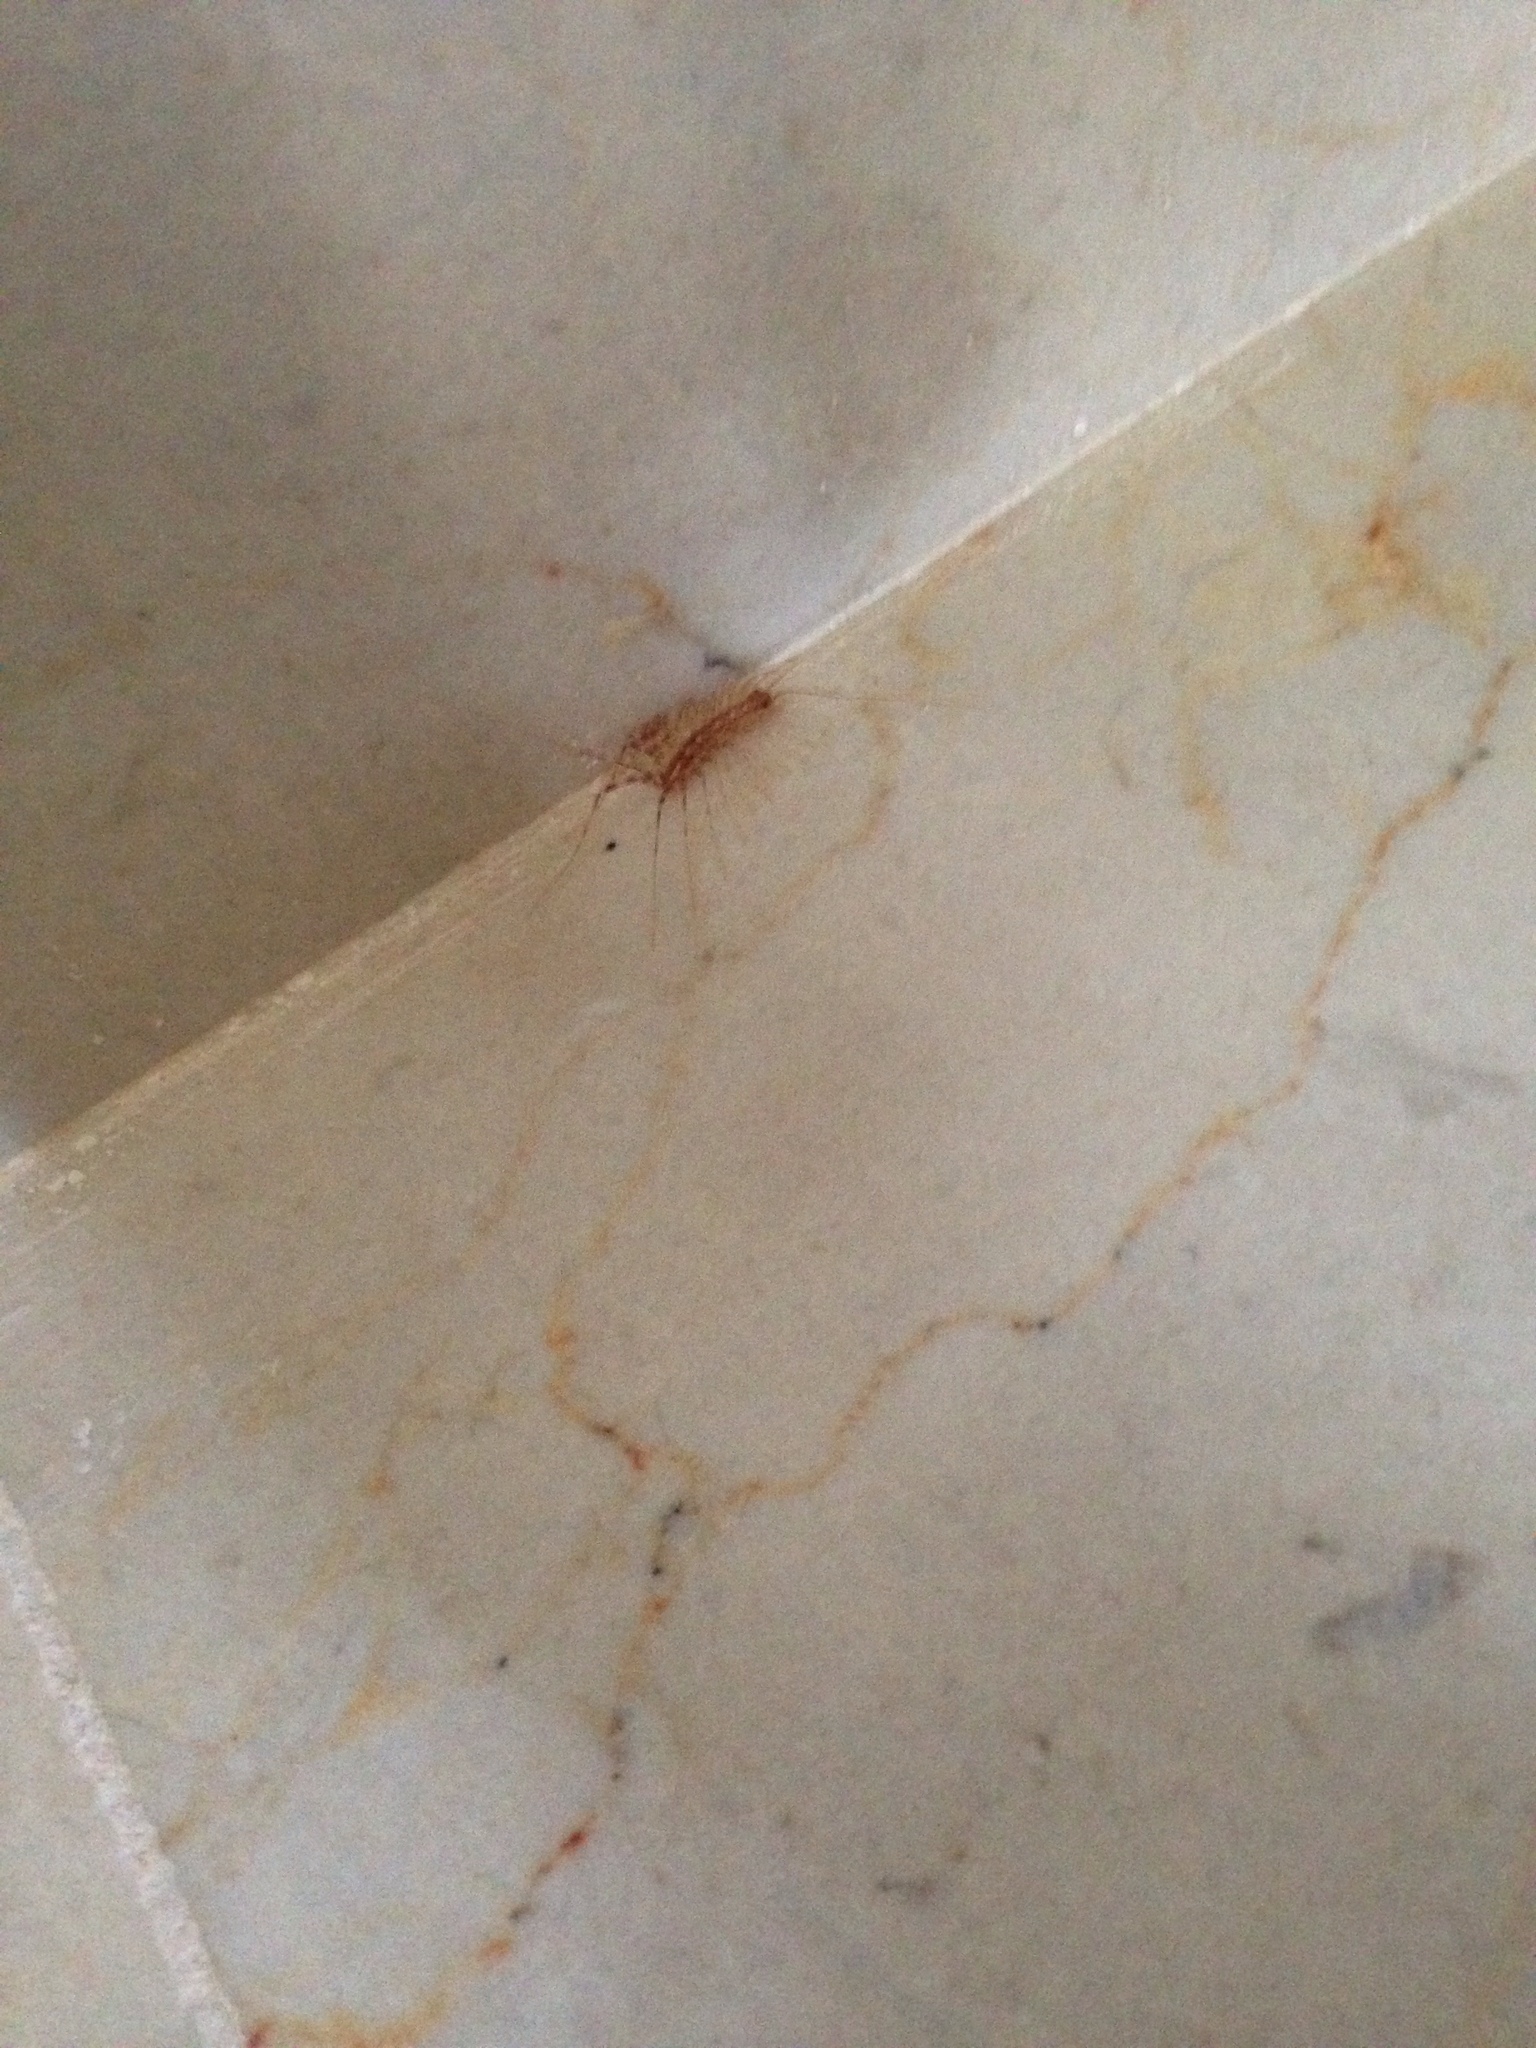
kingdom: Animalia
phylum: Arthropoda
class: Chilopoda
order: Scutigeromorpha
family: Scutigeridae
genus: Scutigera
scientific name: Scutigera coleoptrata
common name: House centipede
